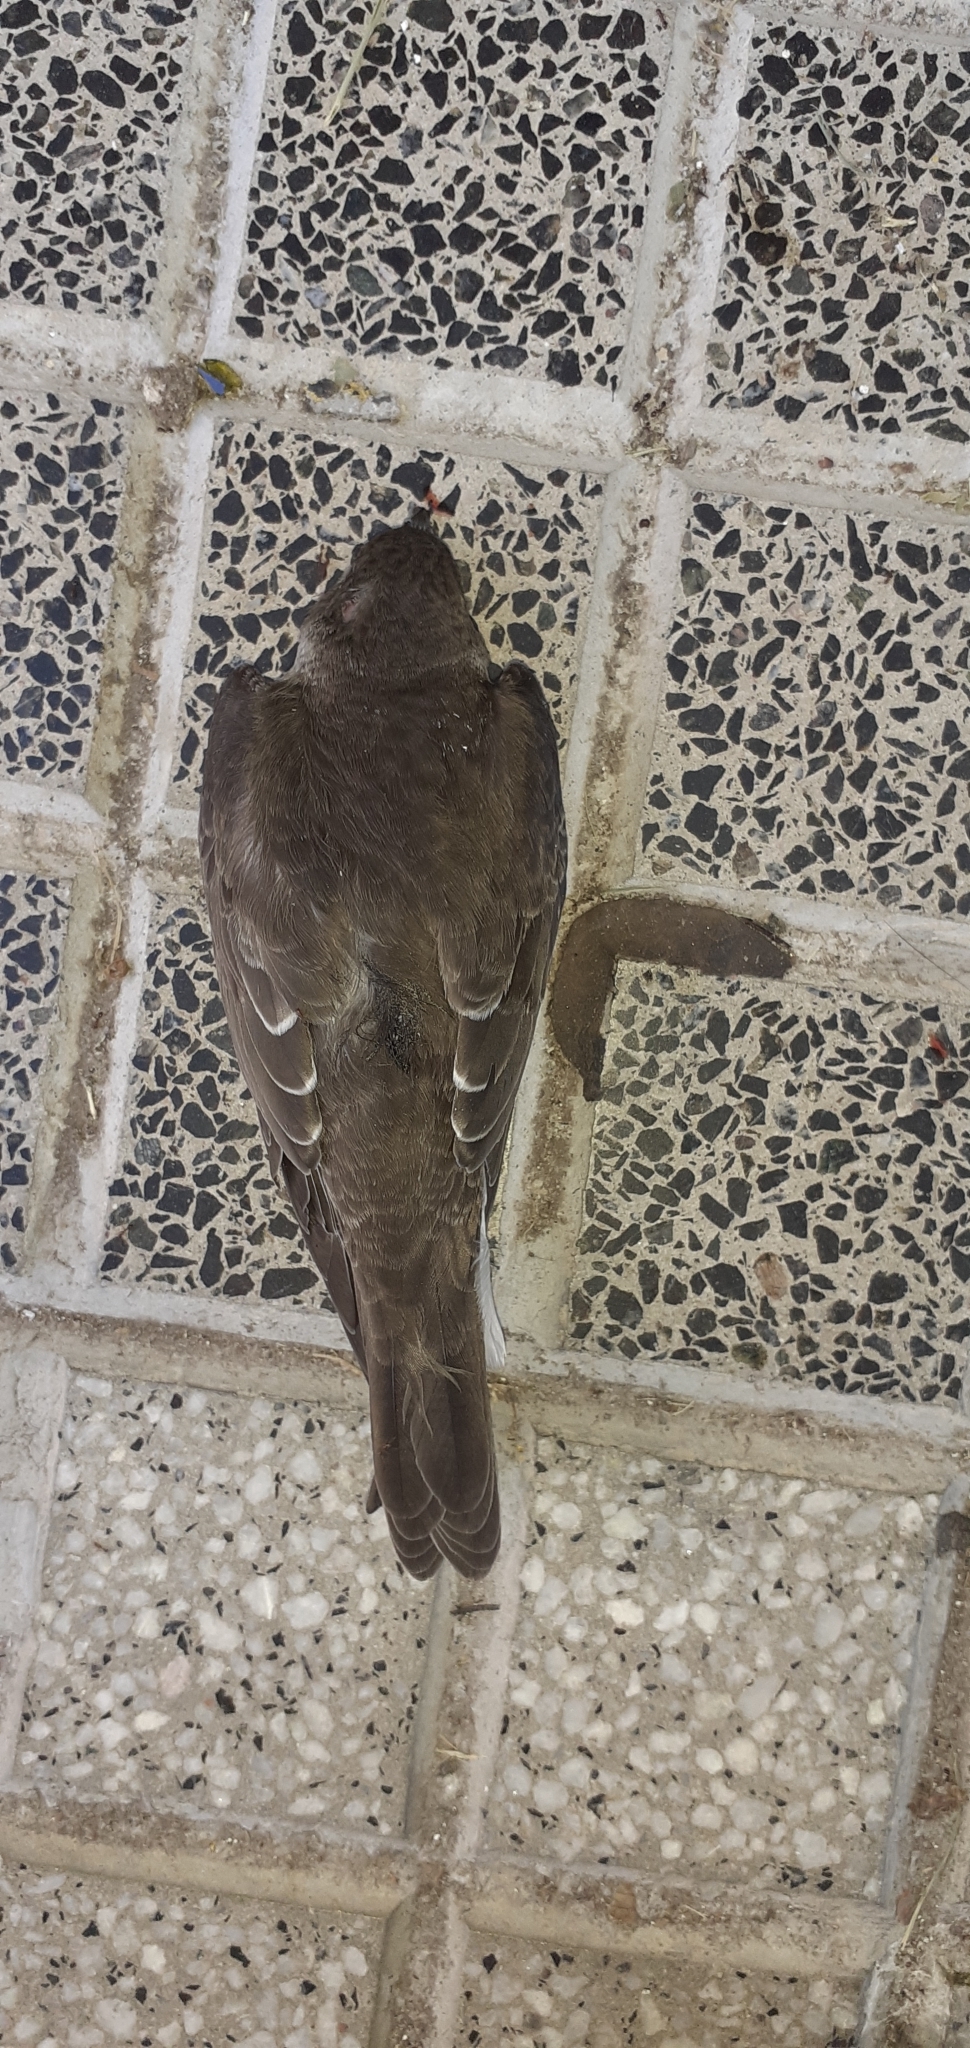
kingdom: Animalia
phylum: Chordata
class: Aves
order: Passeriformes
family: Hirundinidae
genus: Progne
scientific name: Progne tapera
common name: Brown-chested martin
